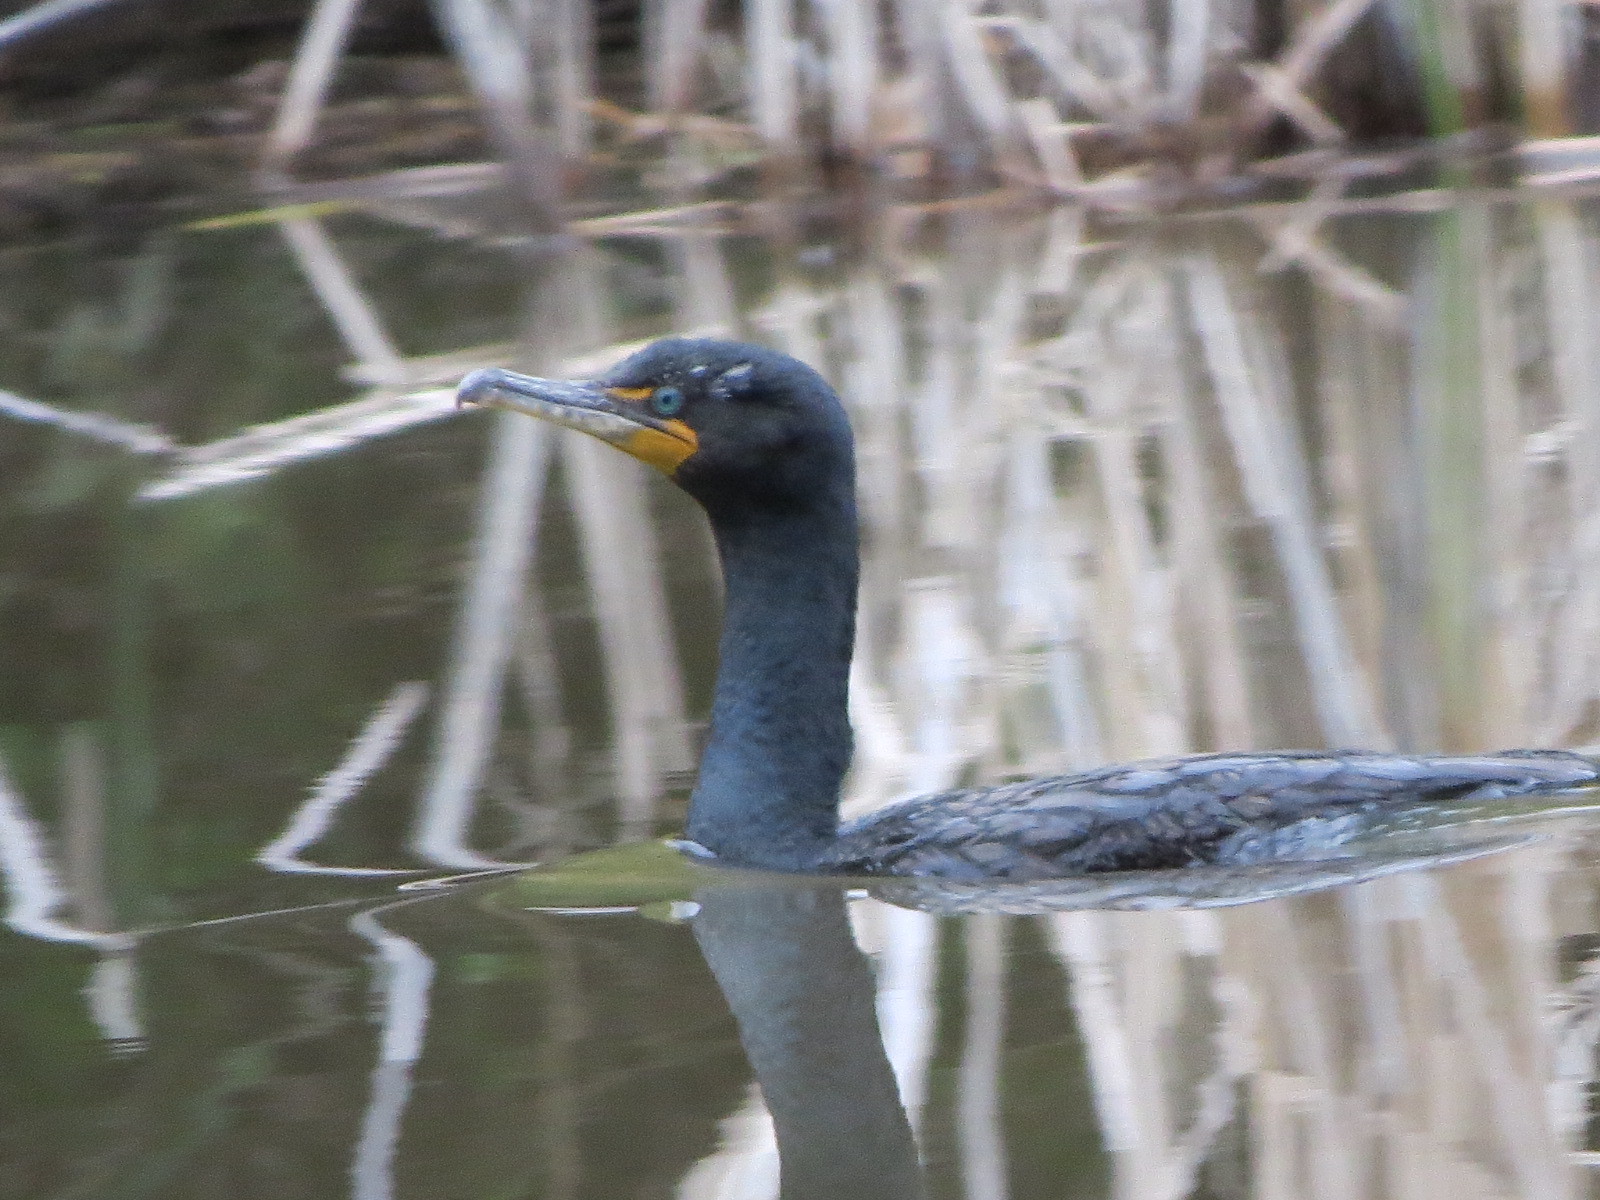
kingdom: Animalia
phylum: Chordata
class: Aves
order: Suliformes
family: Phalacrocoracidae
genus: Phalacrocorax
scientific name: Phalacrocorax auritus
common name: Double-crested cormorant
